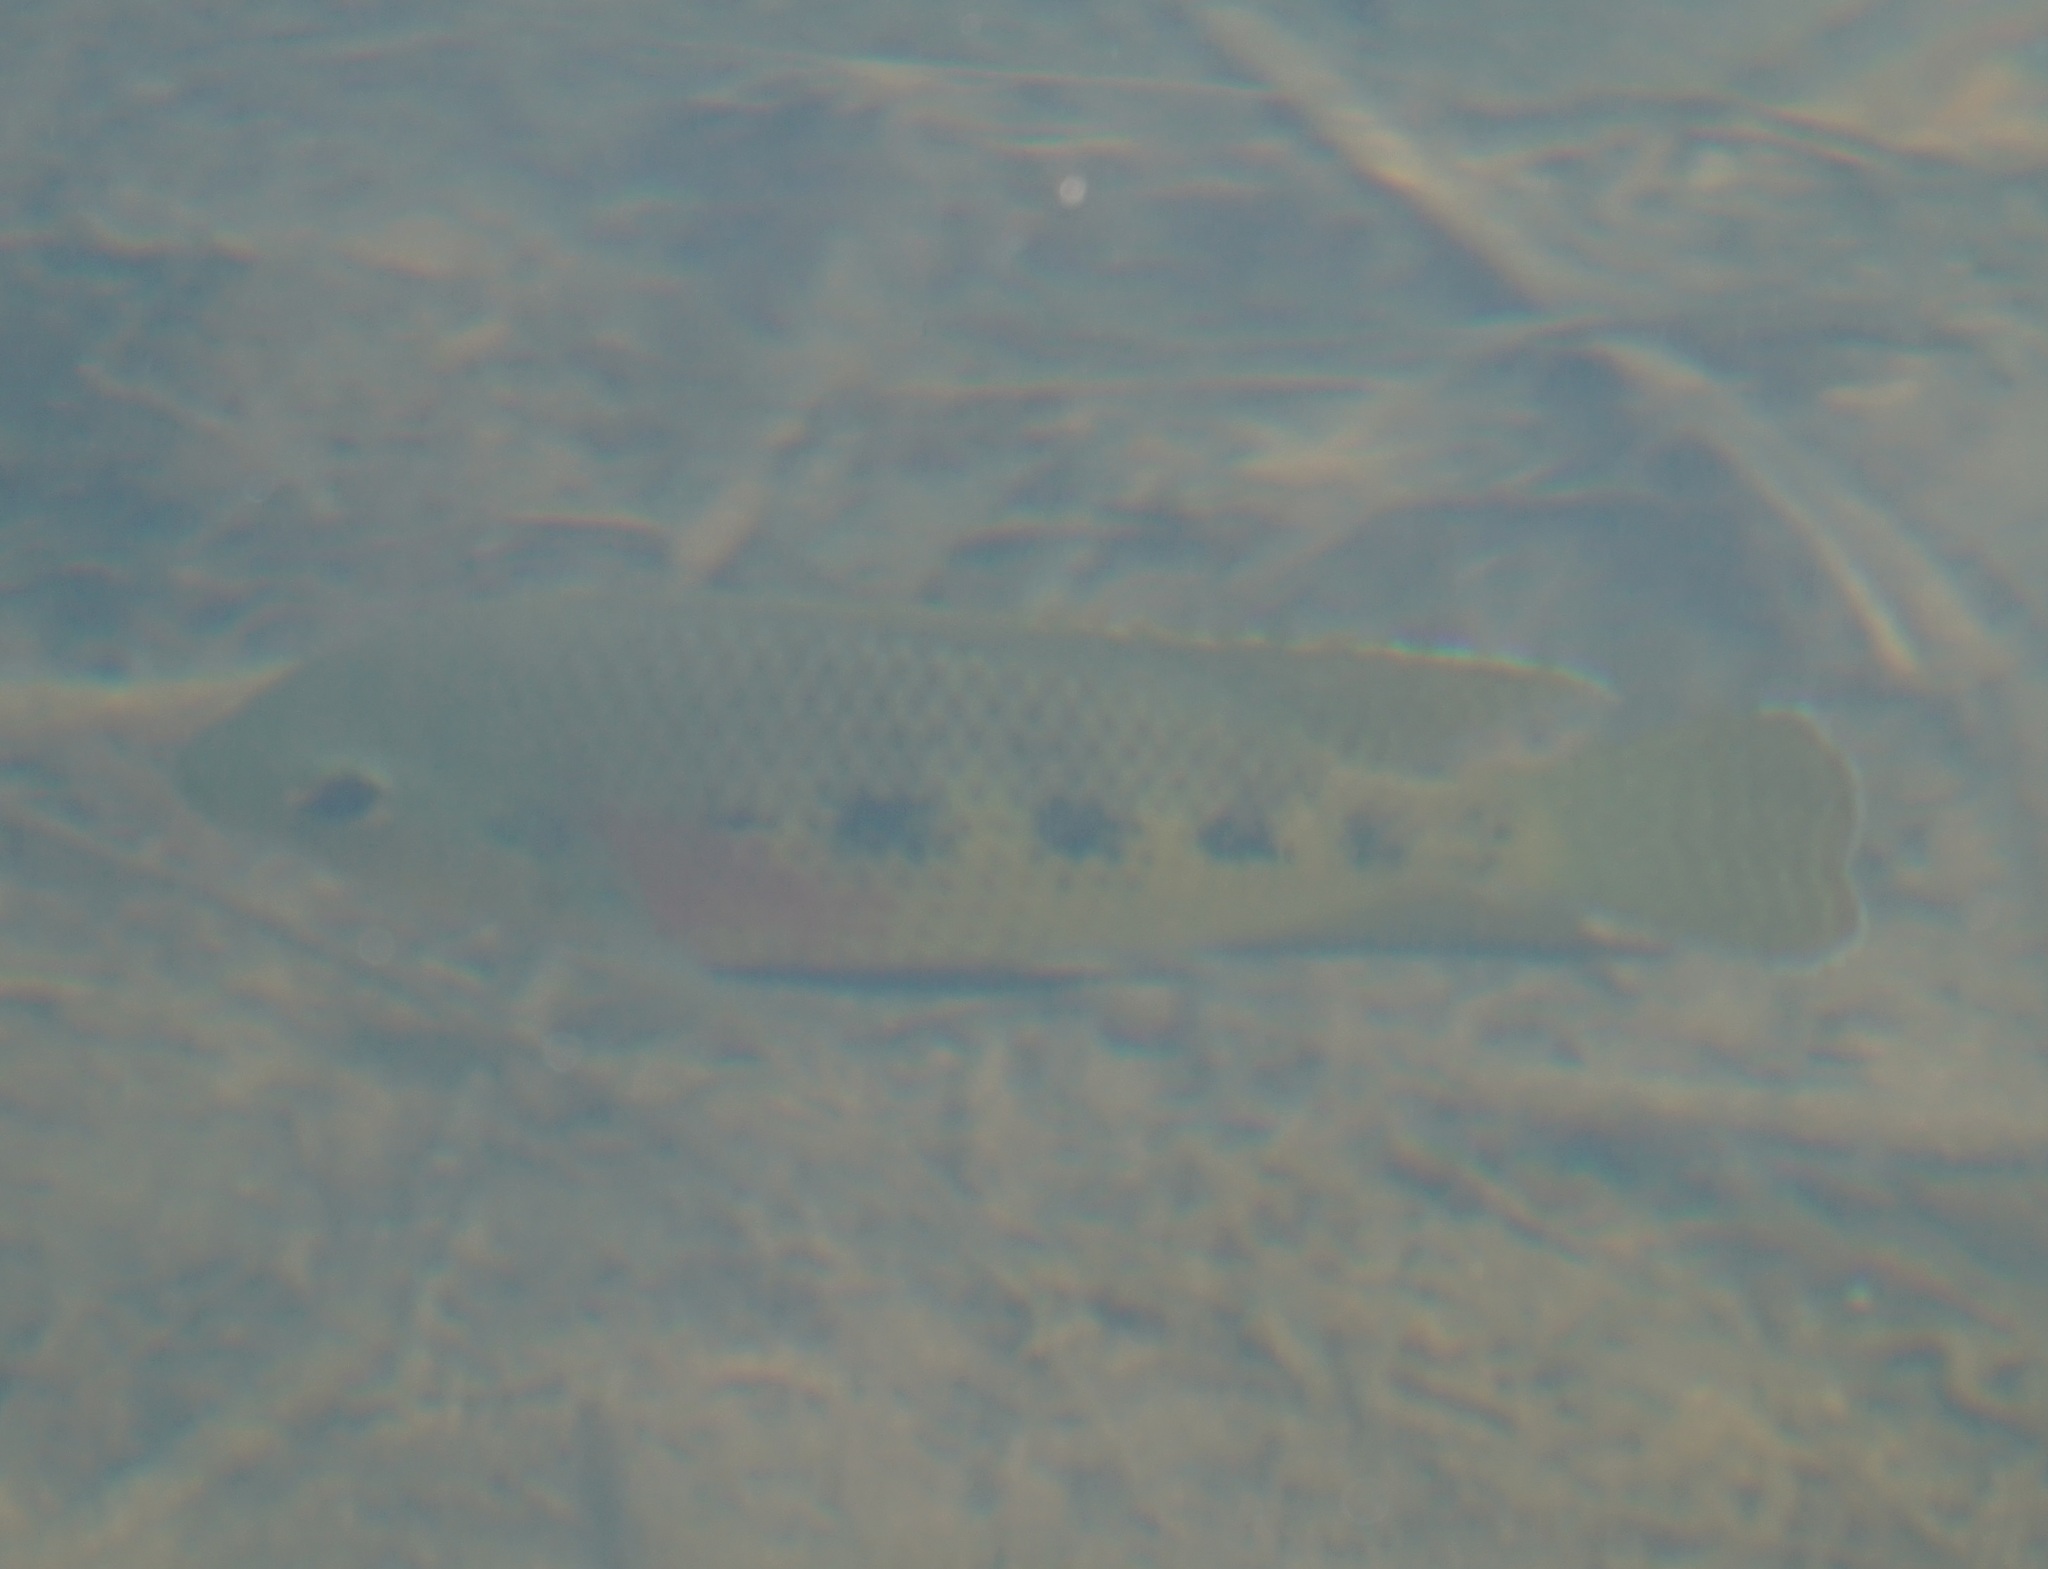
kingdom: Animalia
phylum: Chordata
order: Perciformes
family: Cichlidae
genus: Pelmatolapia
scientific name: Pelmatolapia mariae
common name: Spotted tilapia
